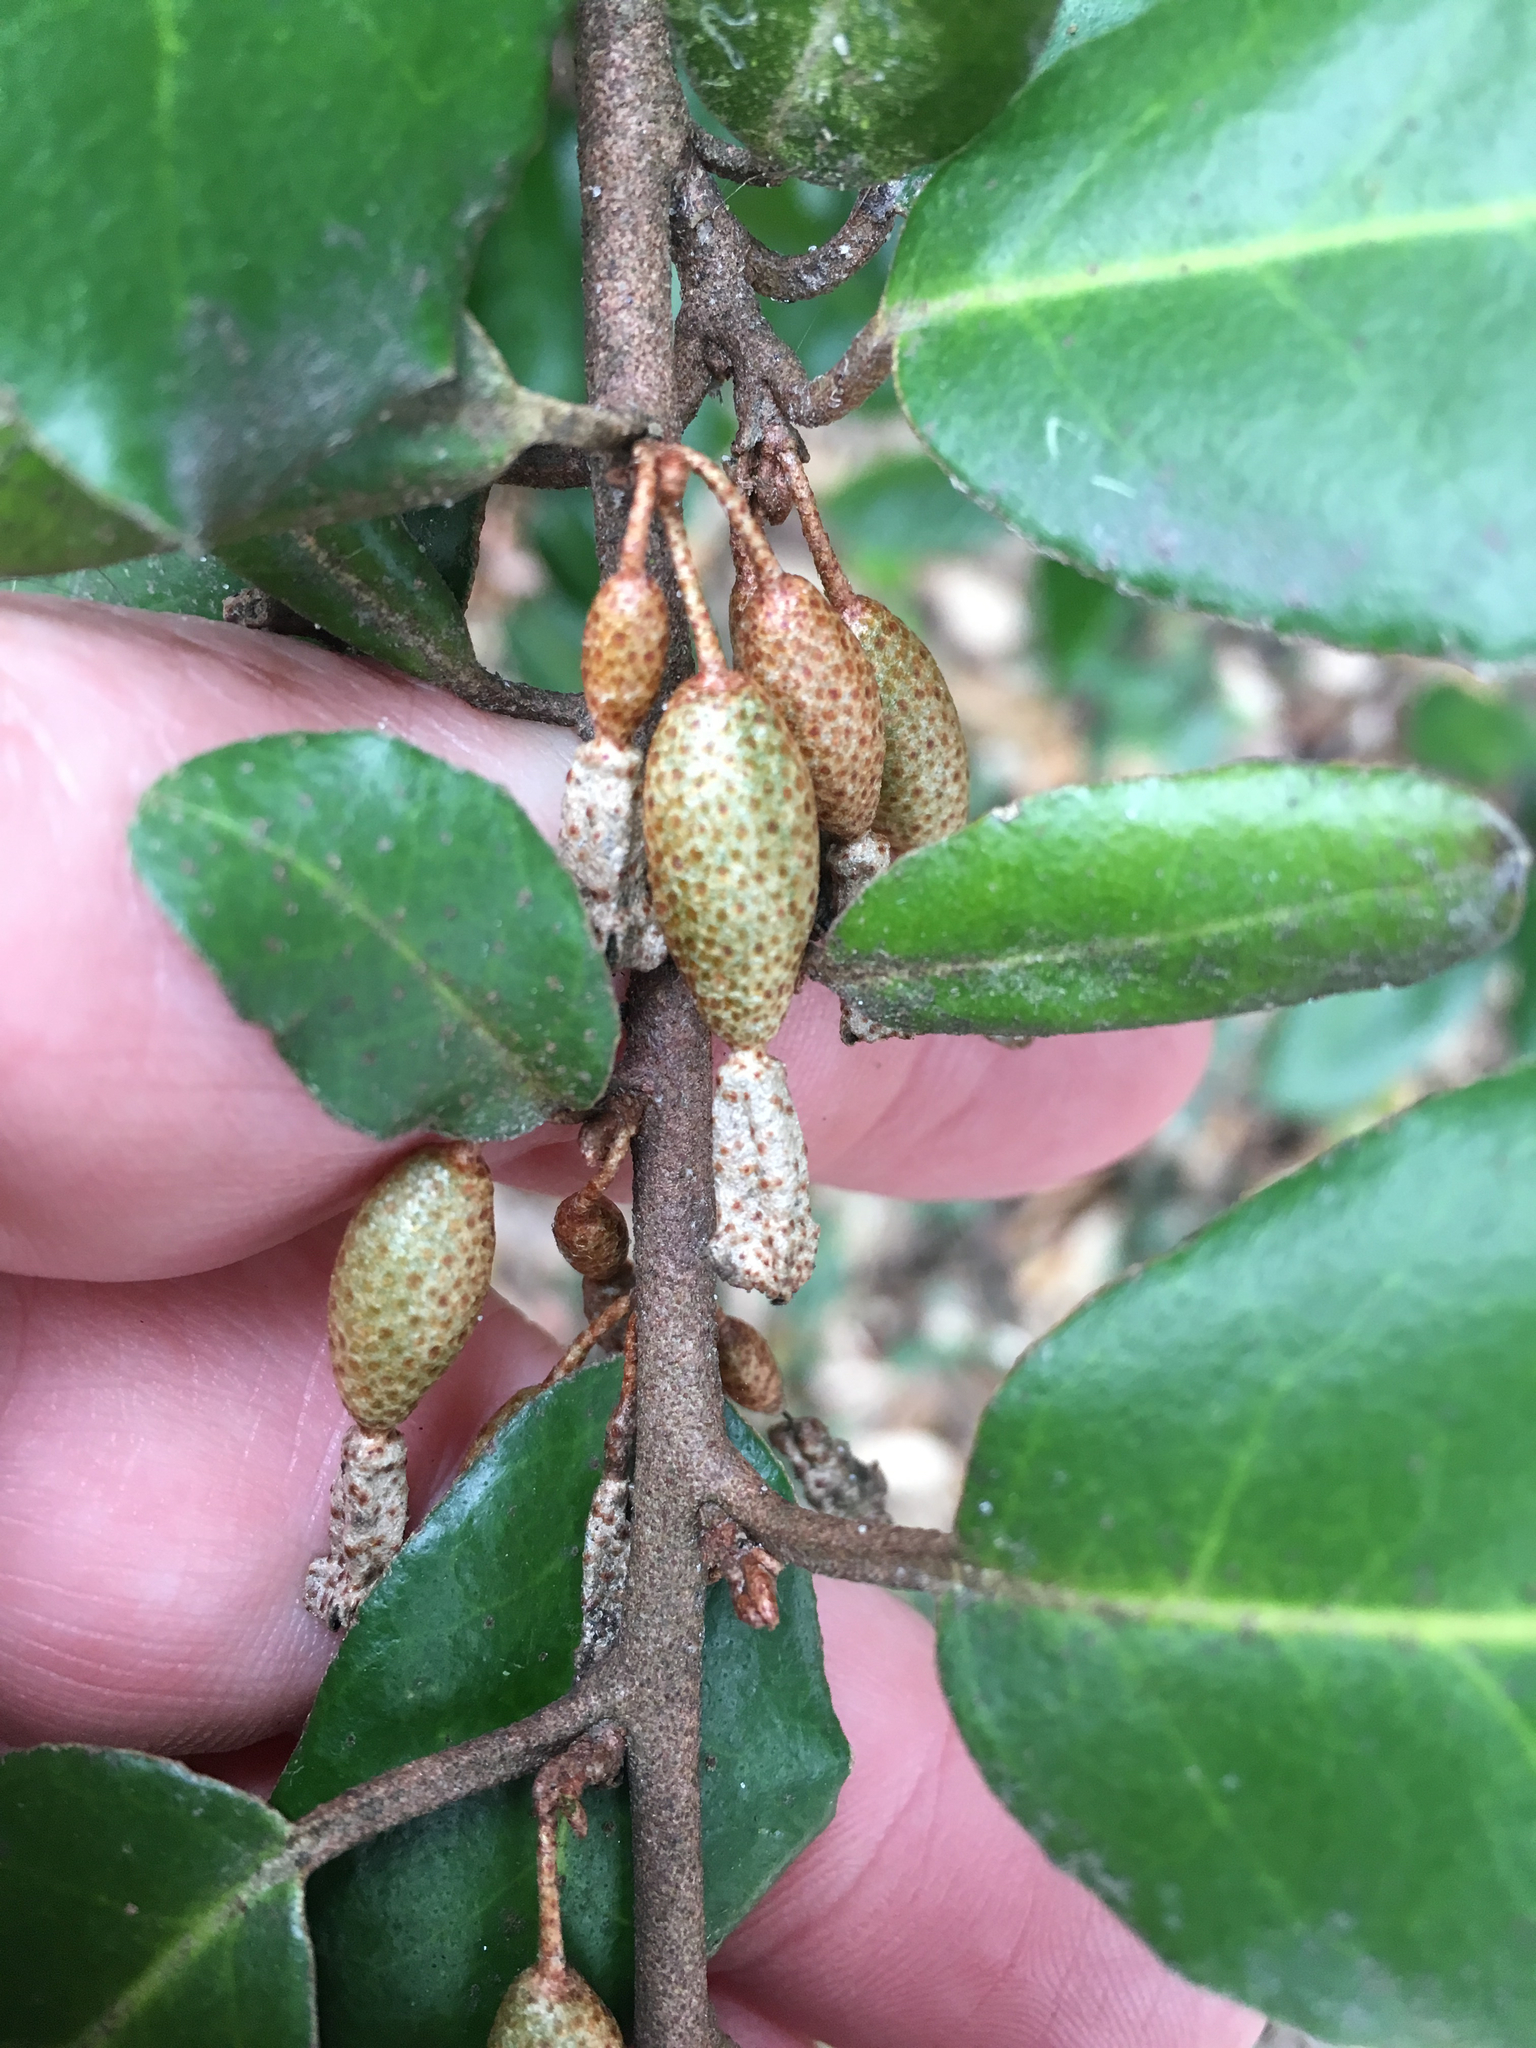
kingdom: Plantae
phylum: Tracheophyta
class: Magnoliopsida
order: Rosales
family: Elaeagnaceae
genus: Elaeagnus
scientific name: Elaeagnus pungens
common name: Spiny oleaster
